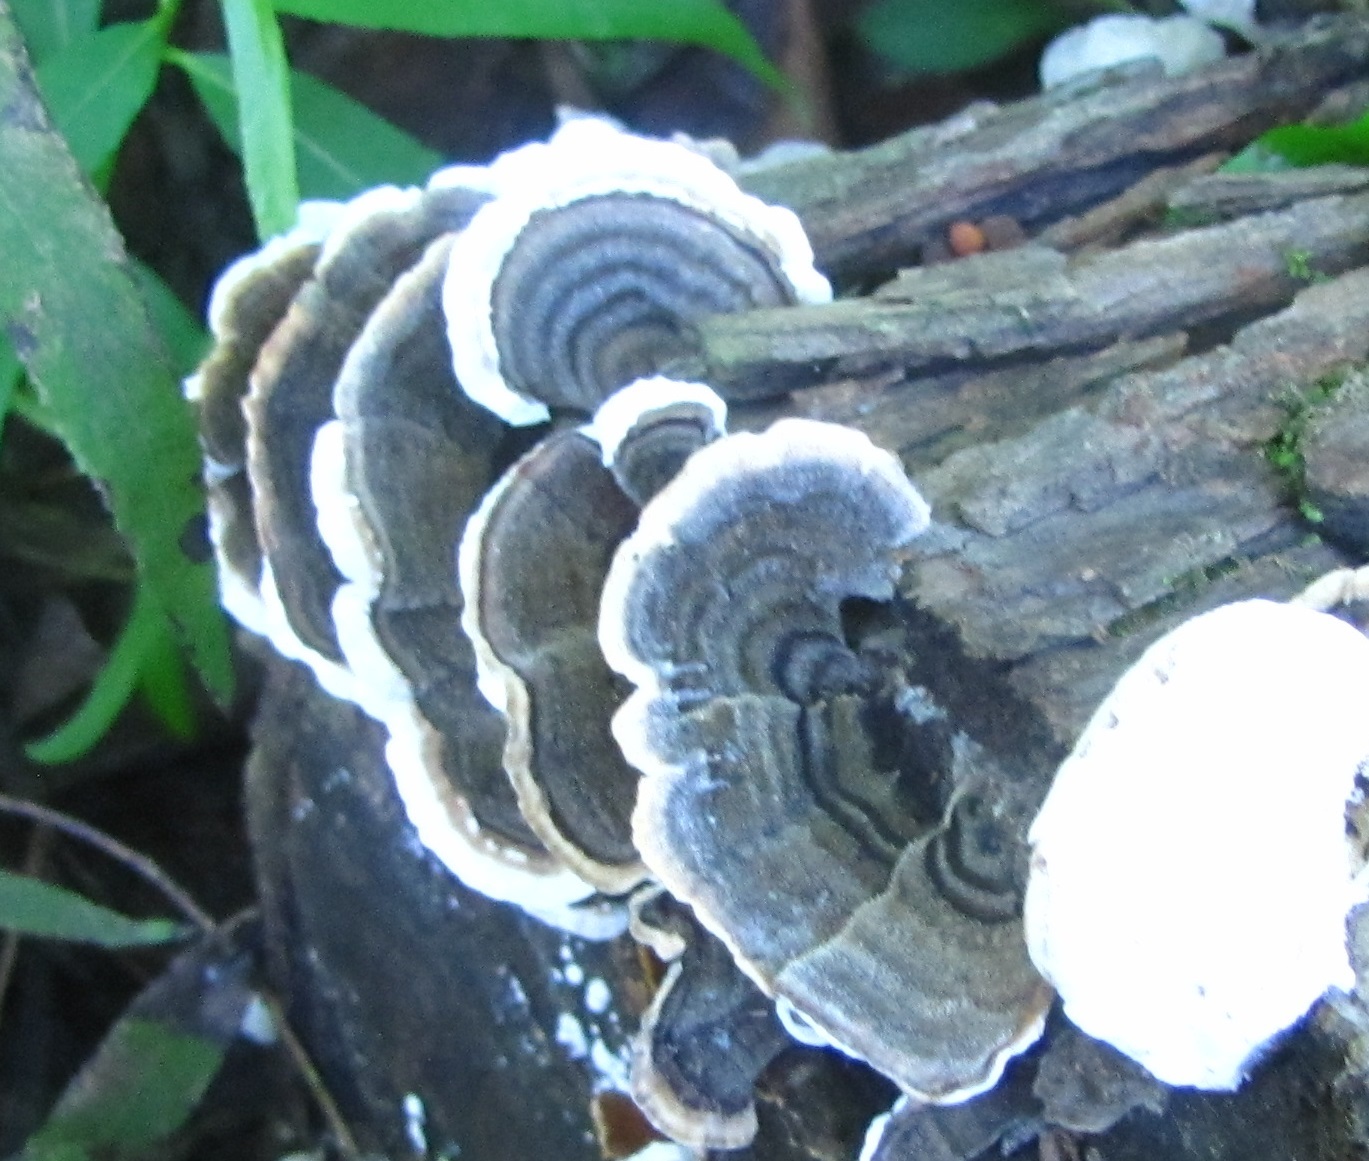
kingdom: Fungi
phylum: Basidiomycota
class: Agaricomycetes
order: Polyporales
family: Polyporaceae
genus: Trametes
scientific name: Trametes versicolor
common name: Turkeytail
